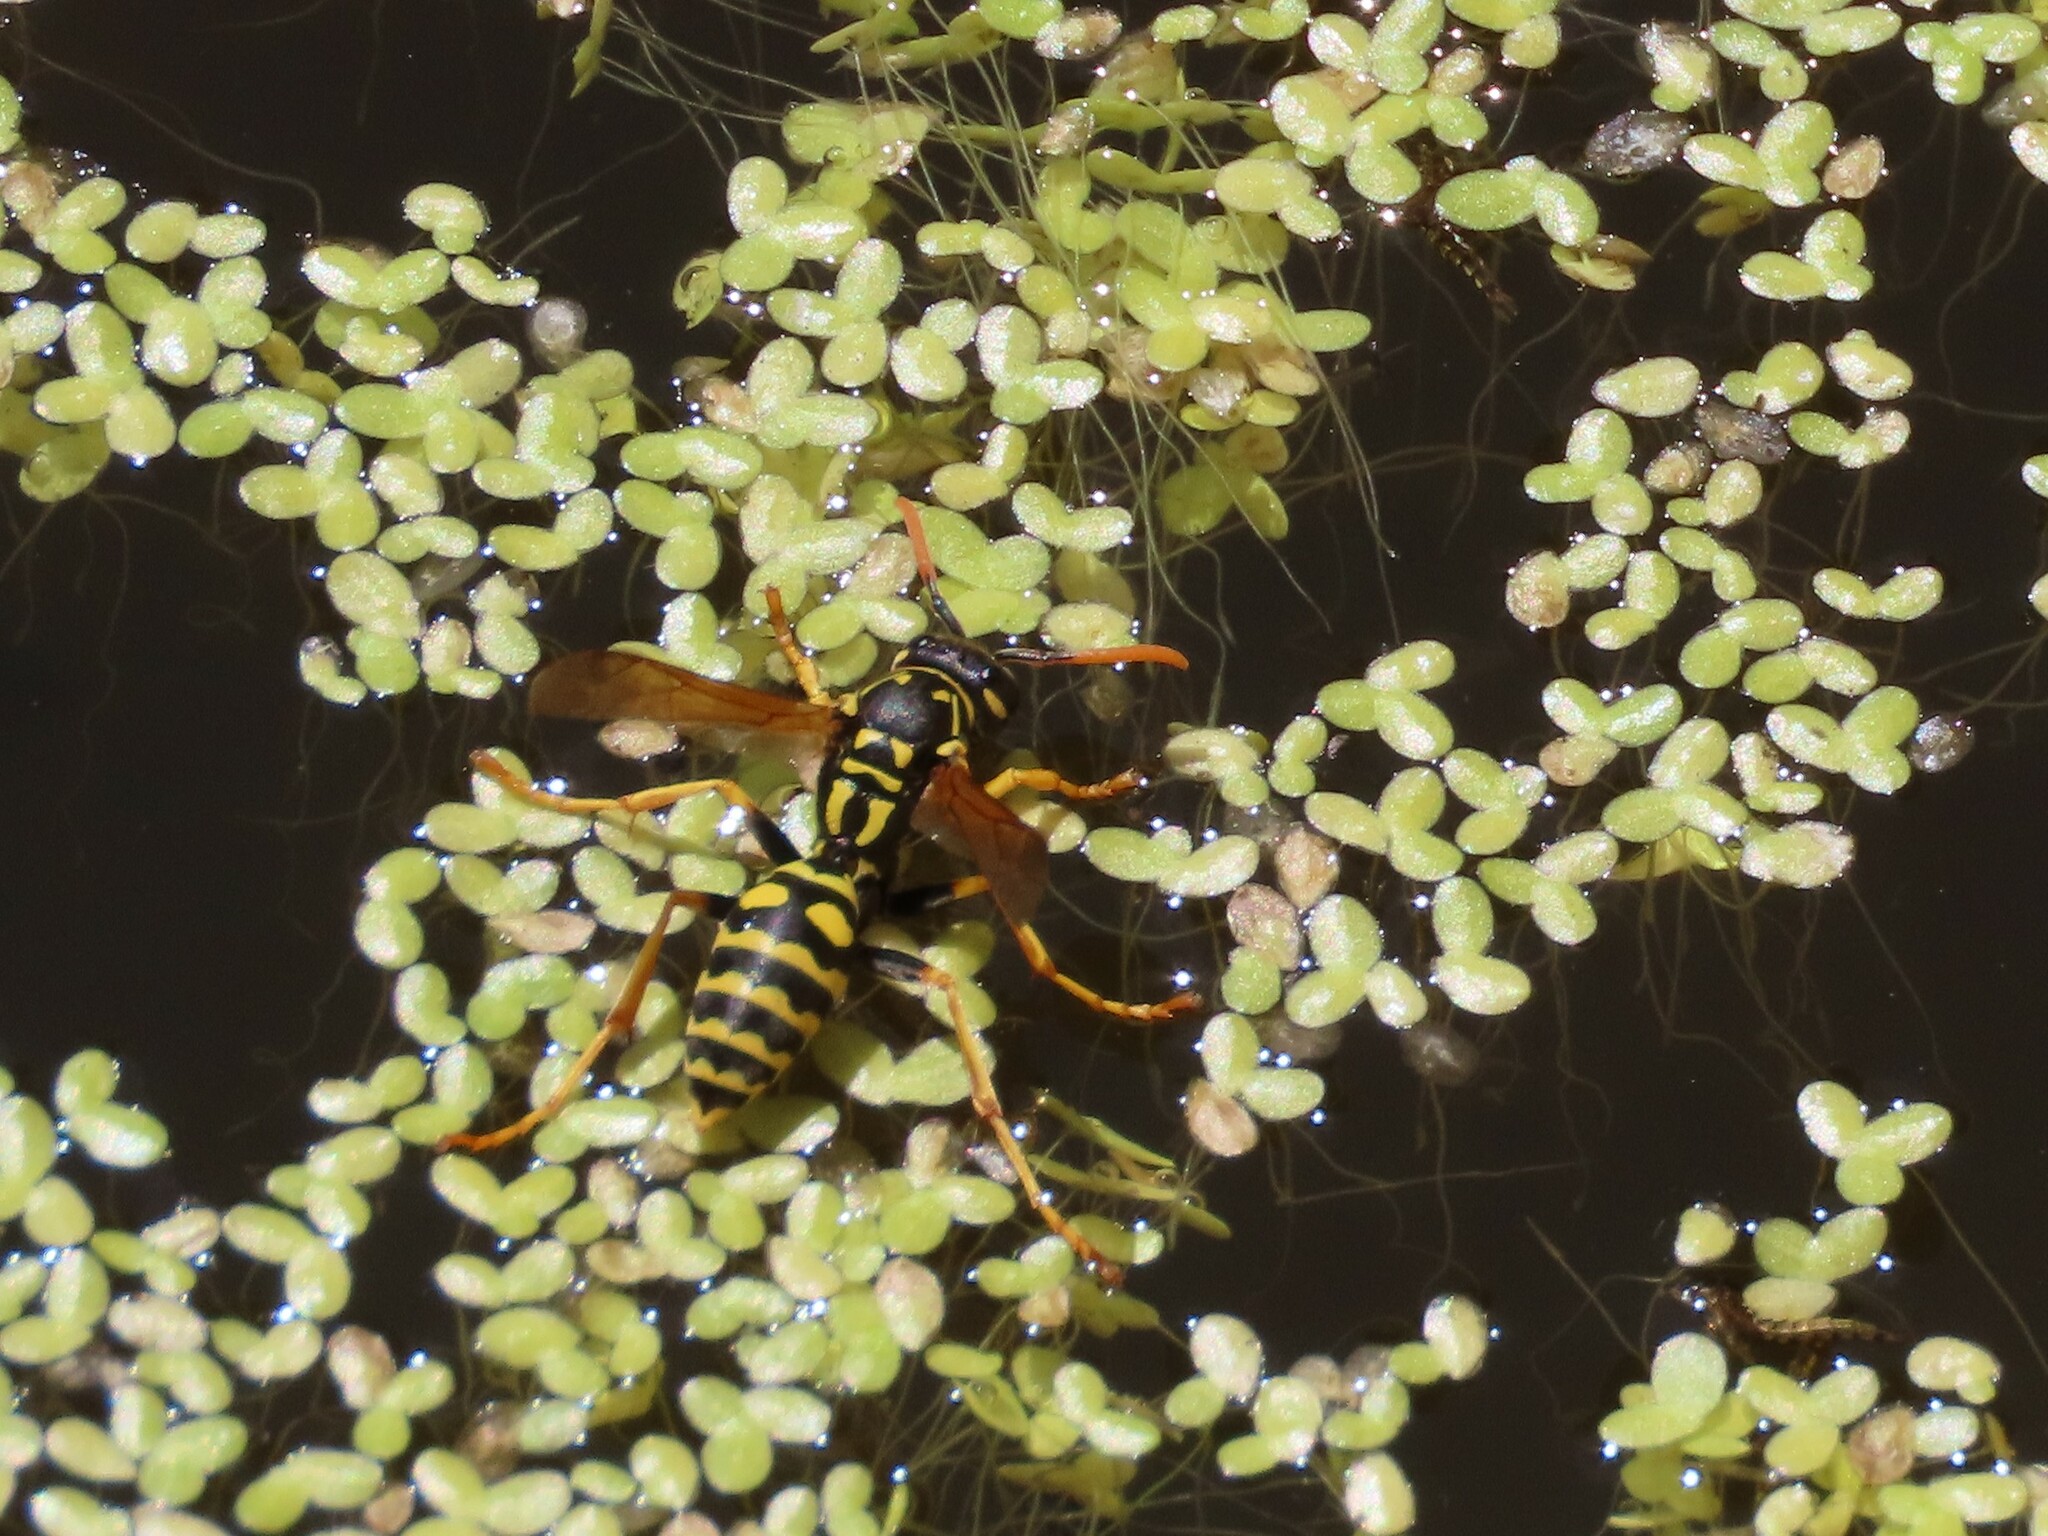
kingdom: Animalia
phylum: Arthropoda
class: Insecta
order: Hymenoptera
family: Eumenidae
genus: Polistes
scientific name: Polistes dominula
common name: Paper wasp
